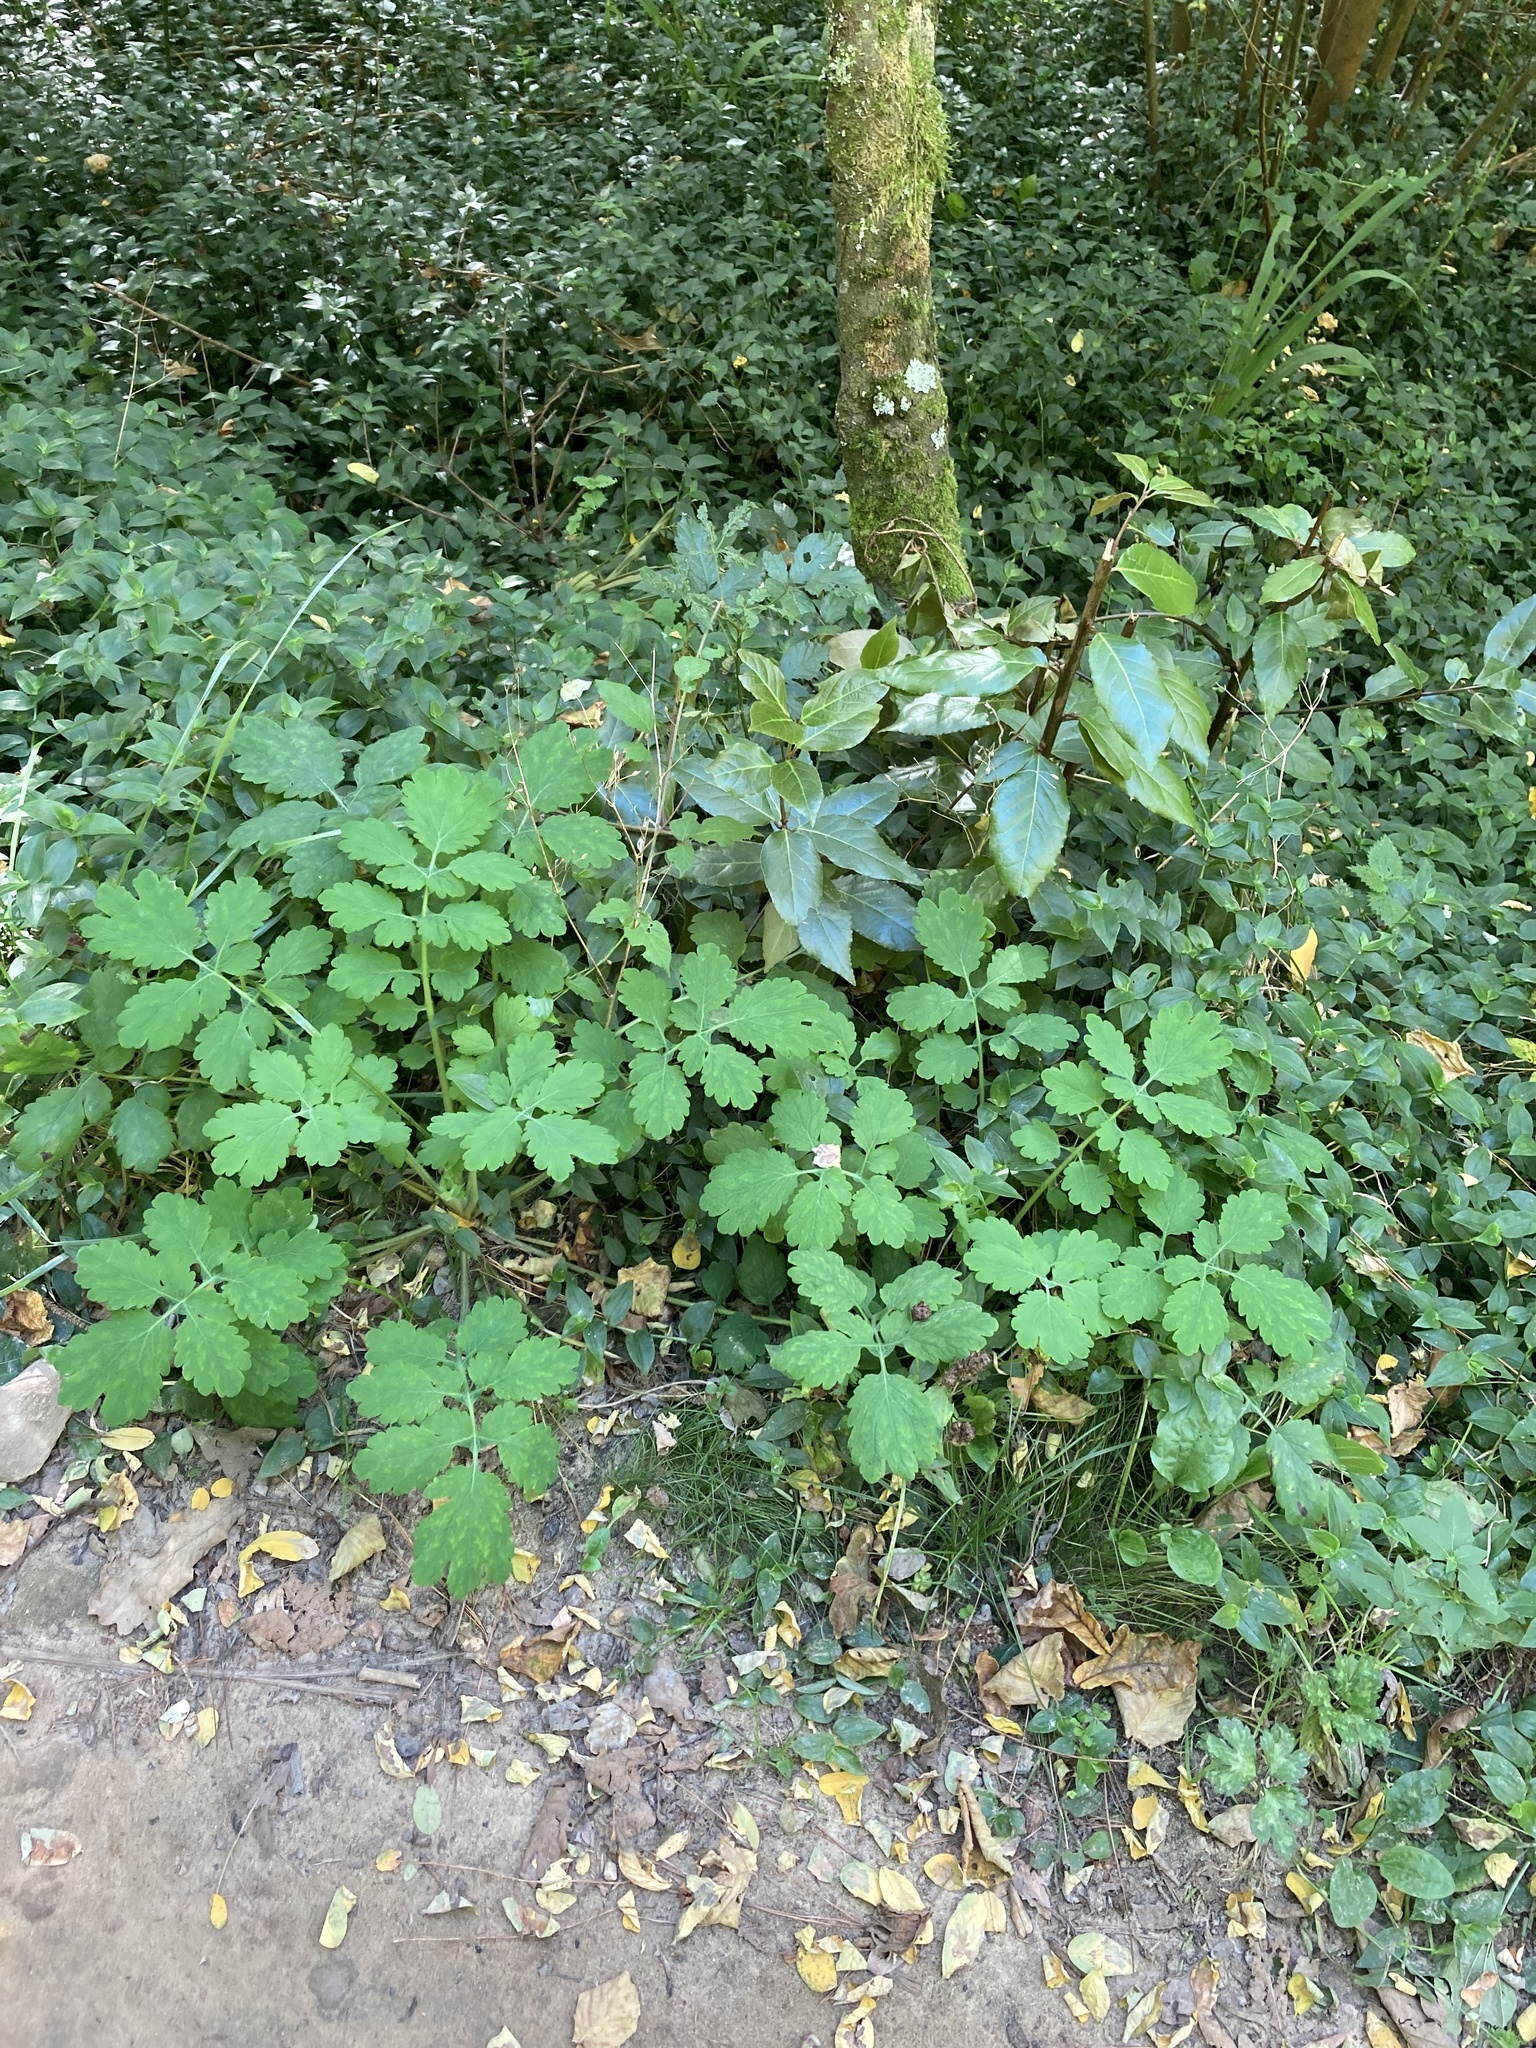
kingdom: Plantae
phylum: Tracheophyta
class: Magnoliopsida
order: Ranunculales
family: Papaveraceae
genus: Chelidonium
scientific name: Chelidonium majus
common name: Greater celandine
